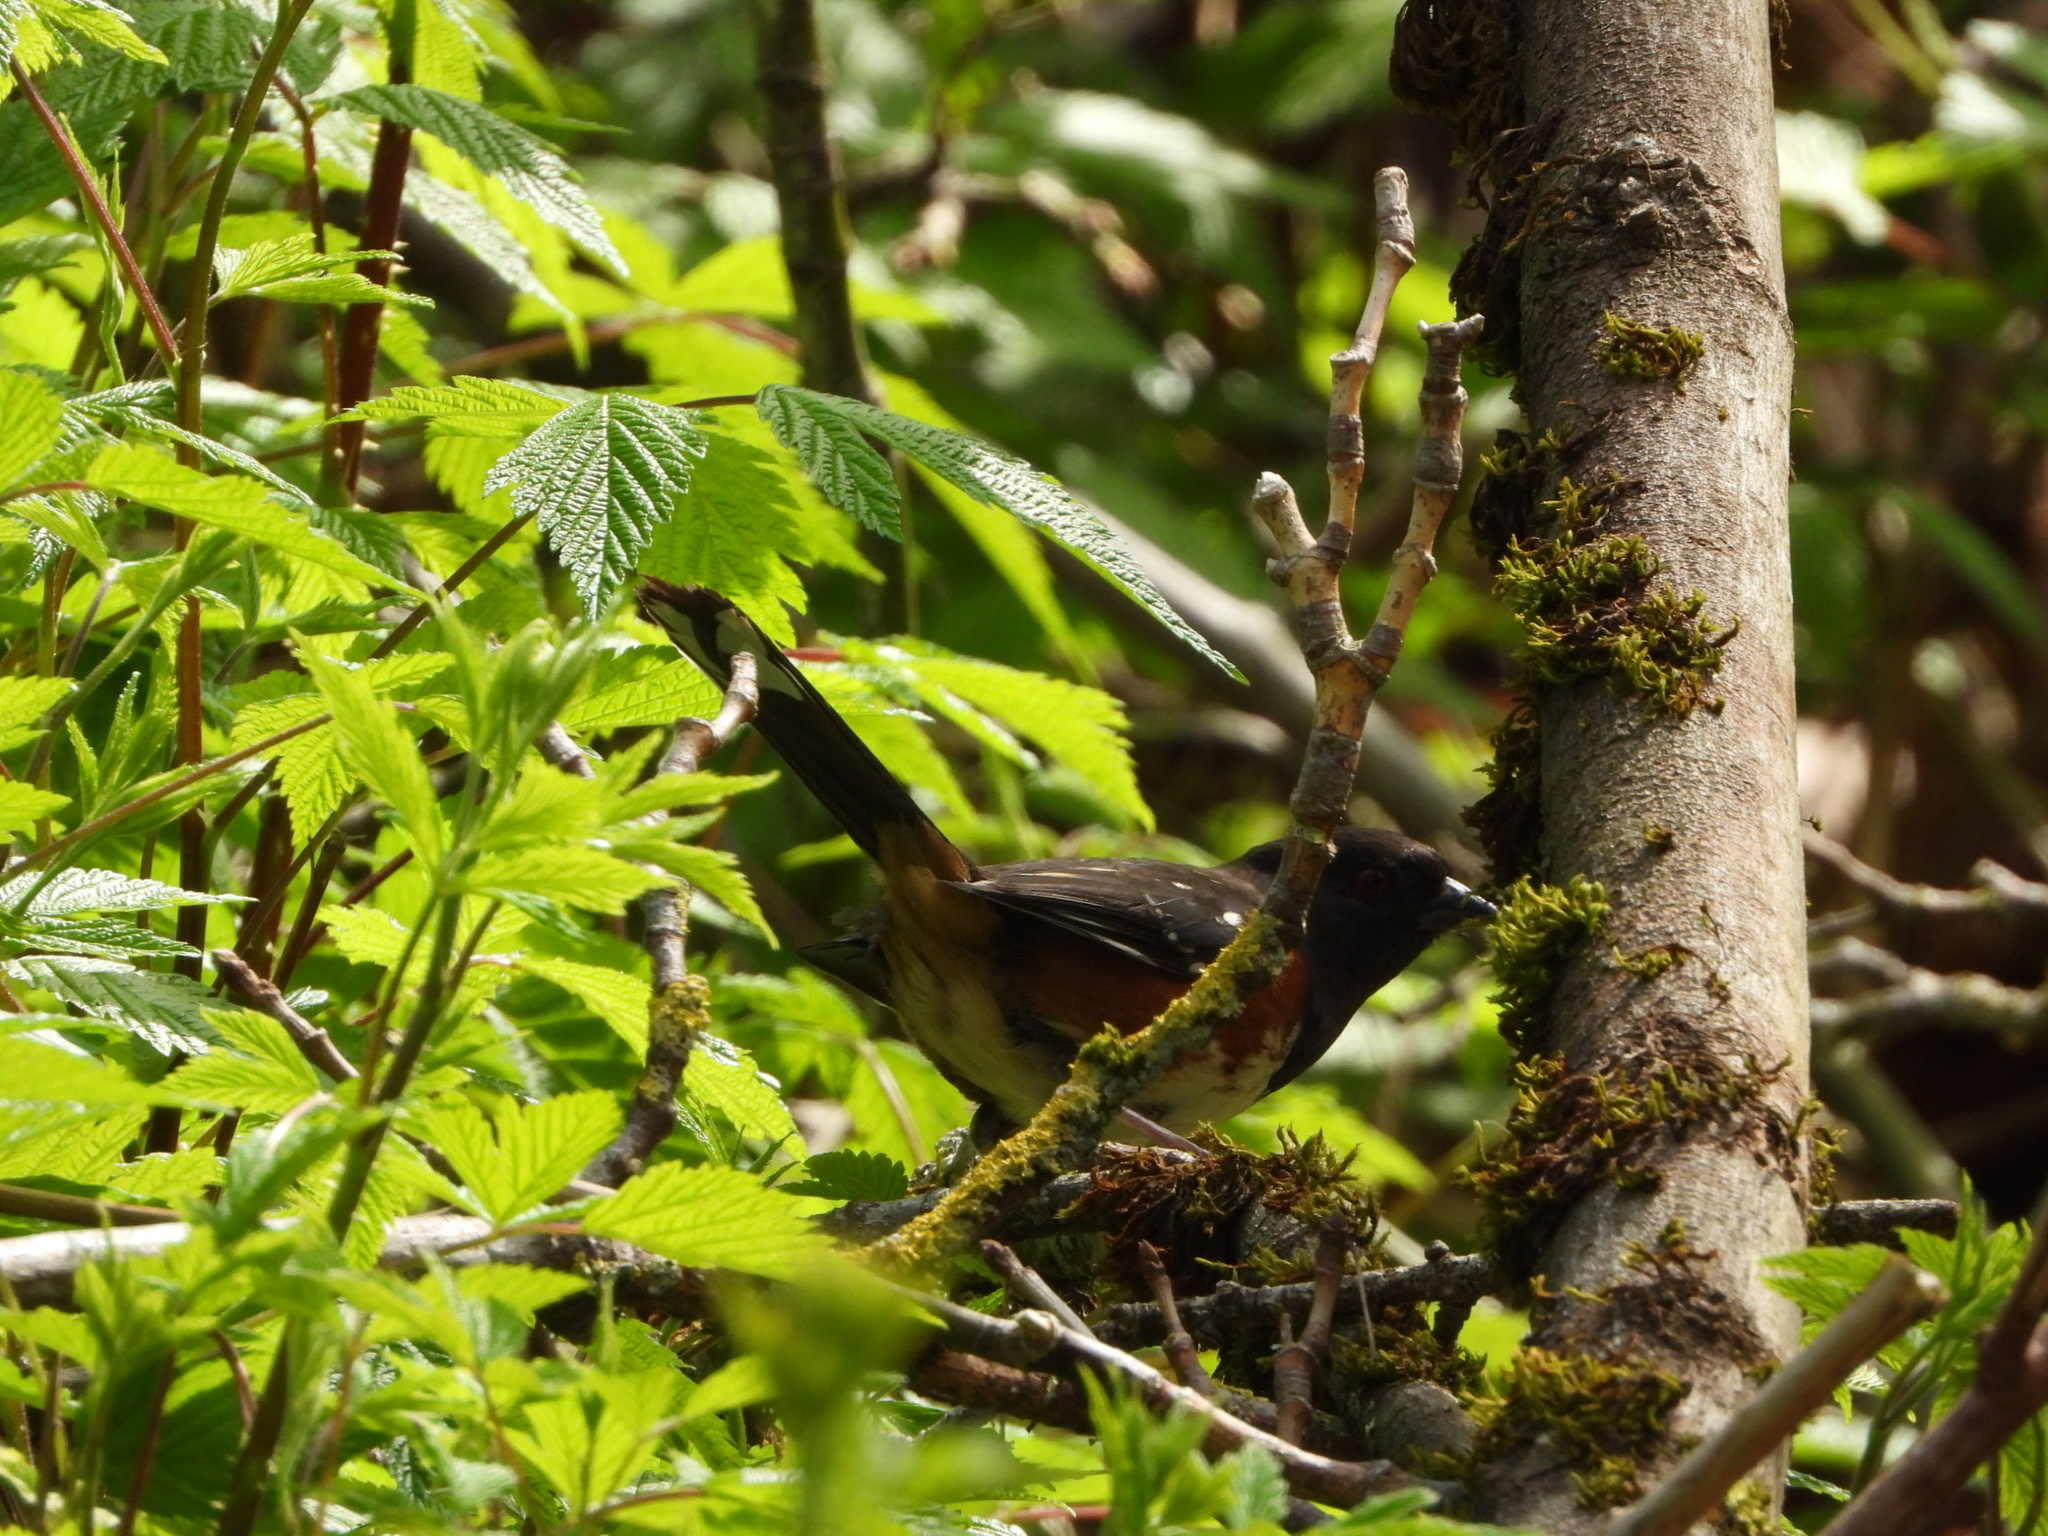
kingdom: Animalia
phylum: Chordata
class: Aves
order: Passeriformes
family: Passerellidae
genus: Pipilo
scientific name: Pipilo maculatus
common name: Spotted towhee
